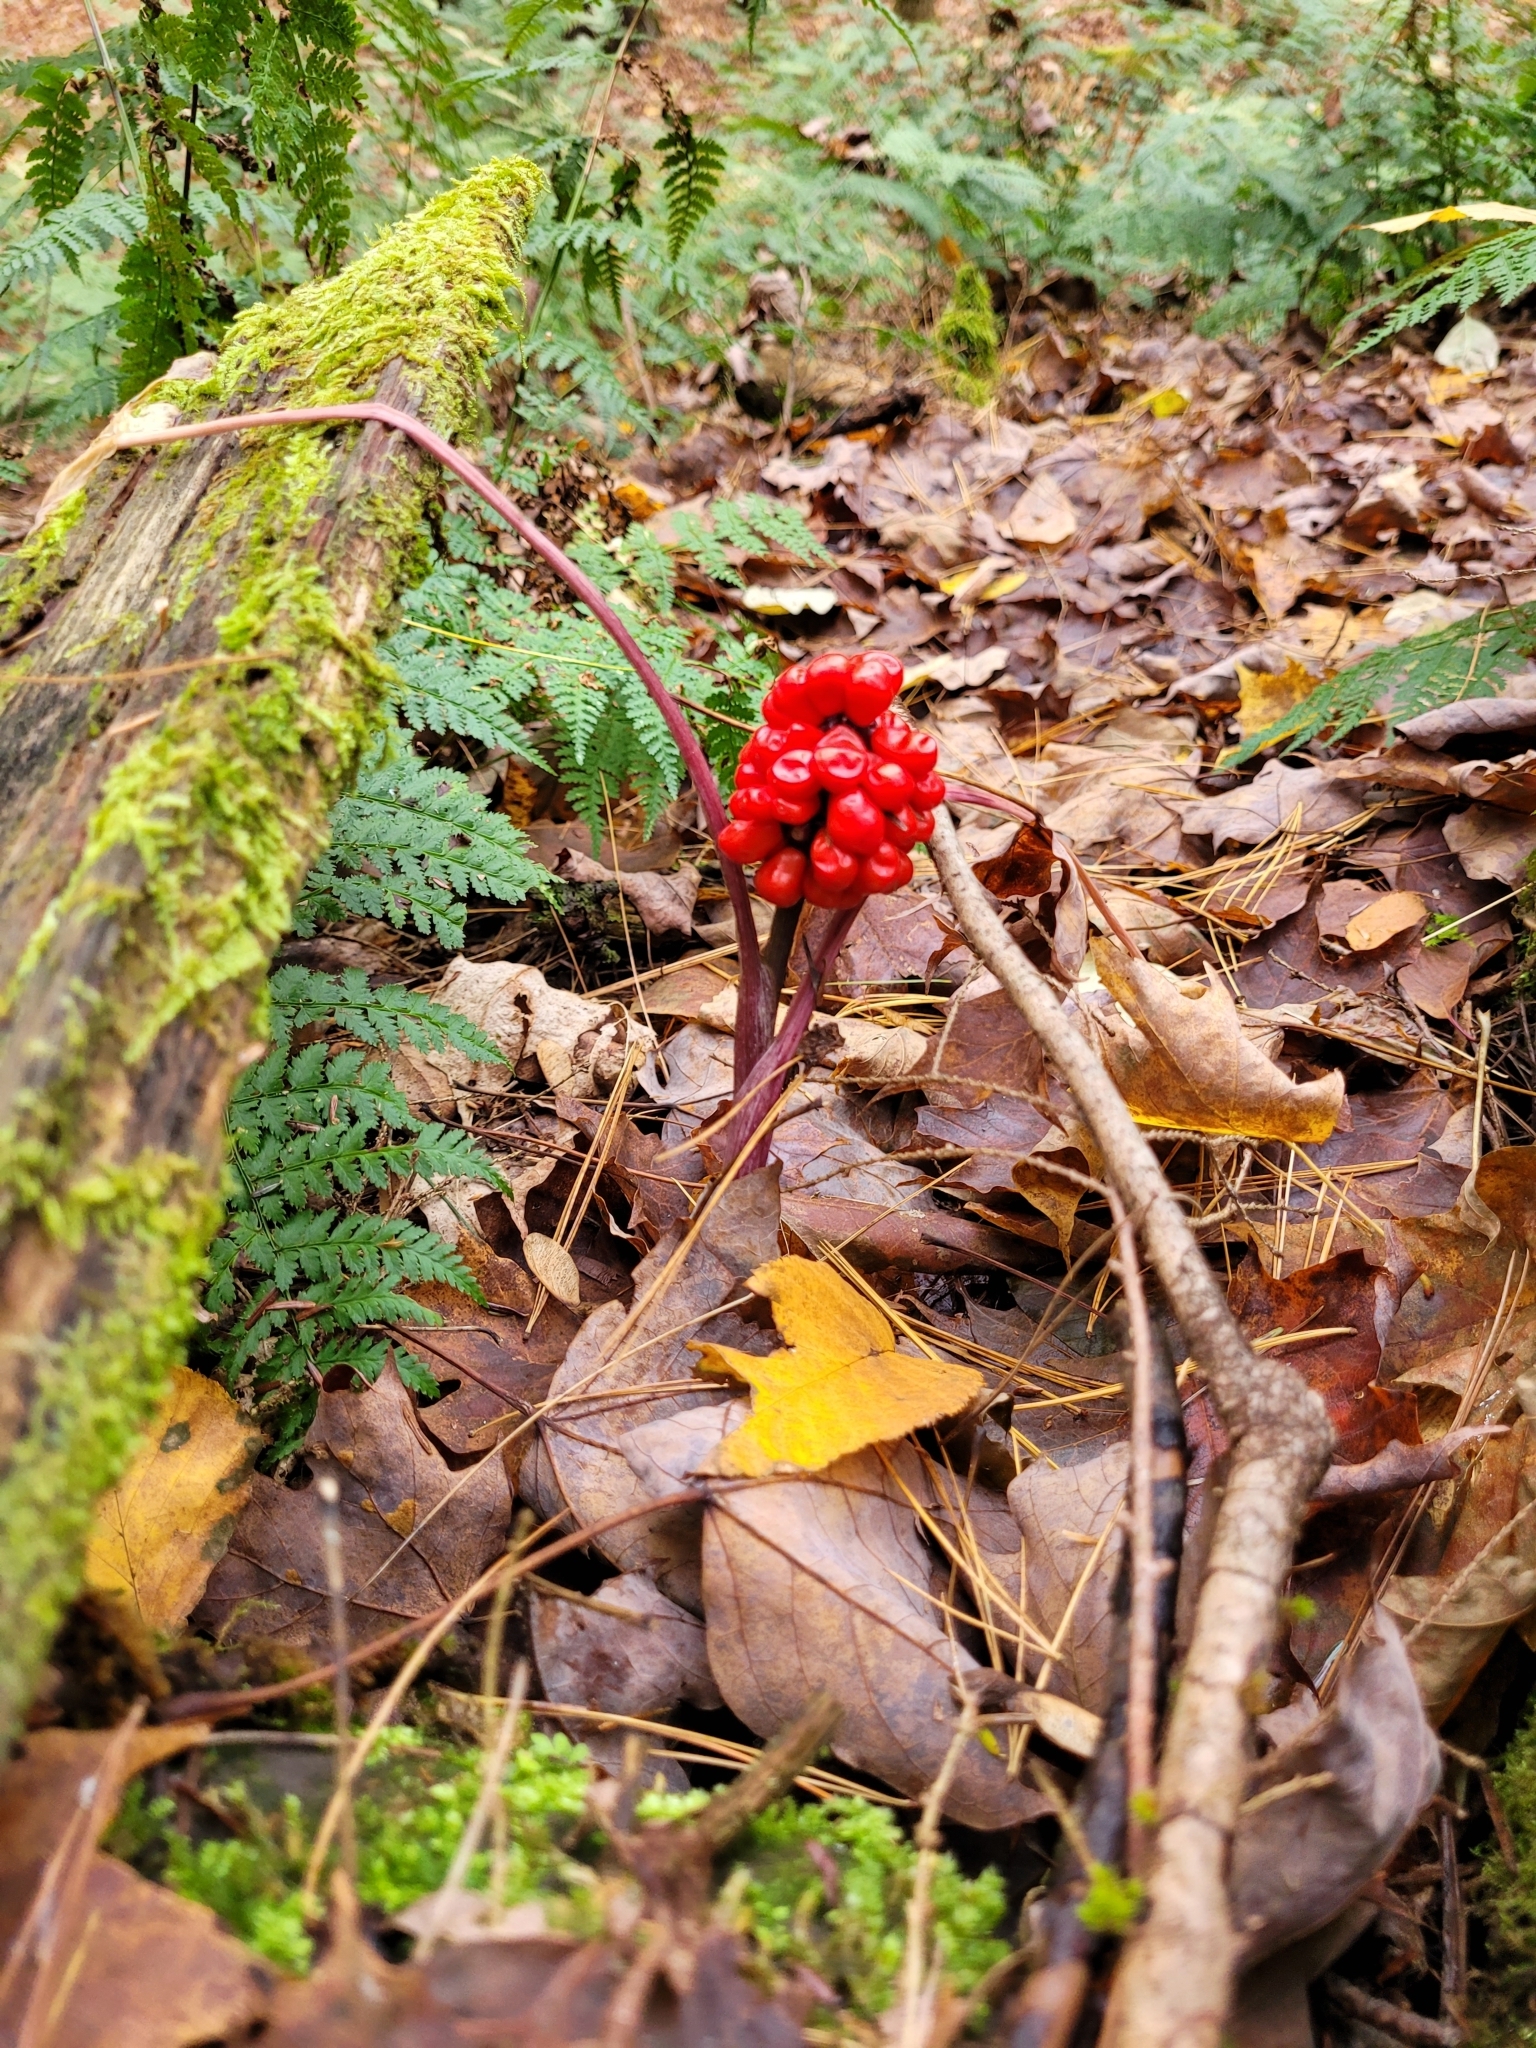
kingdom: Plantae
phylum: Tracheophyta
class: Liliopsida
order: Alismatales
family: Araceae
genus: Arisaema
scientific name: Arisaema triphyllum
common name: Jack-in-the-pulpit
